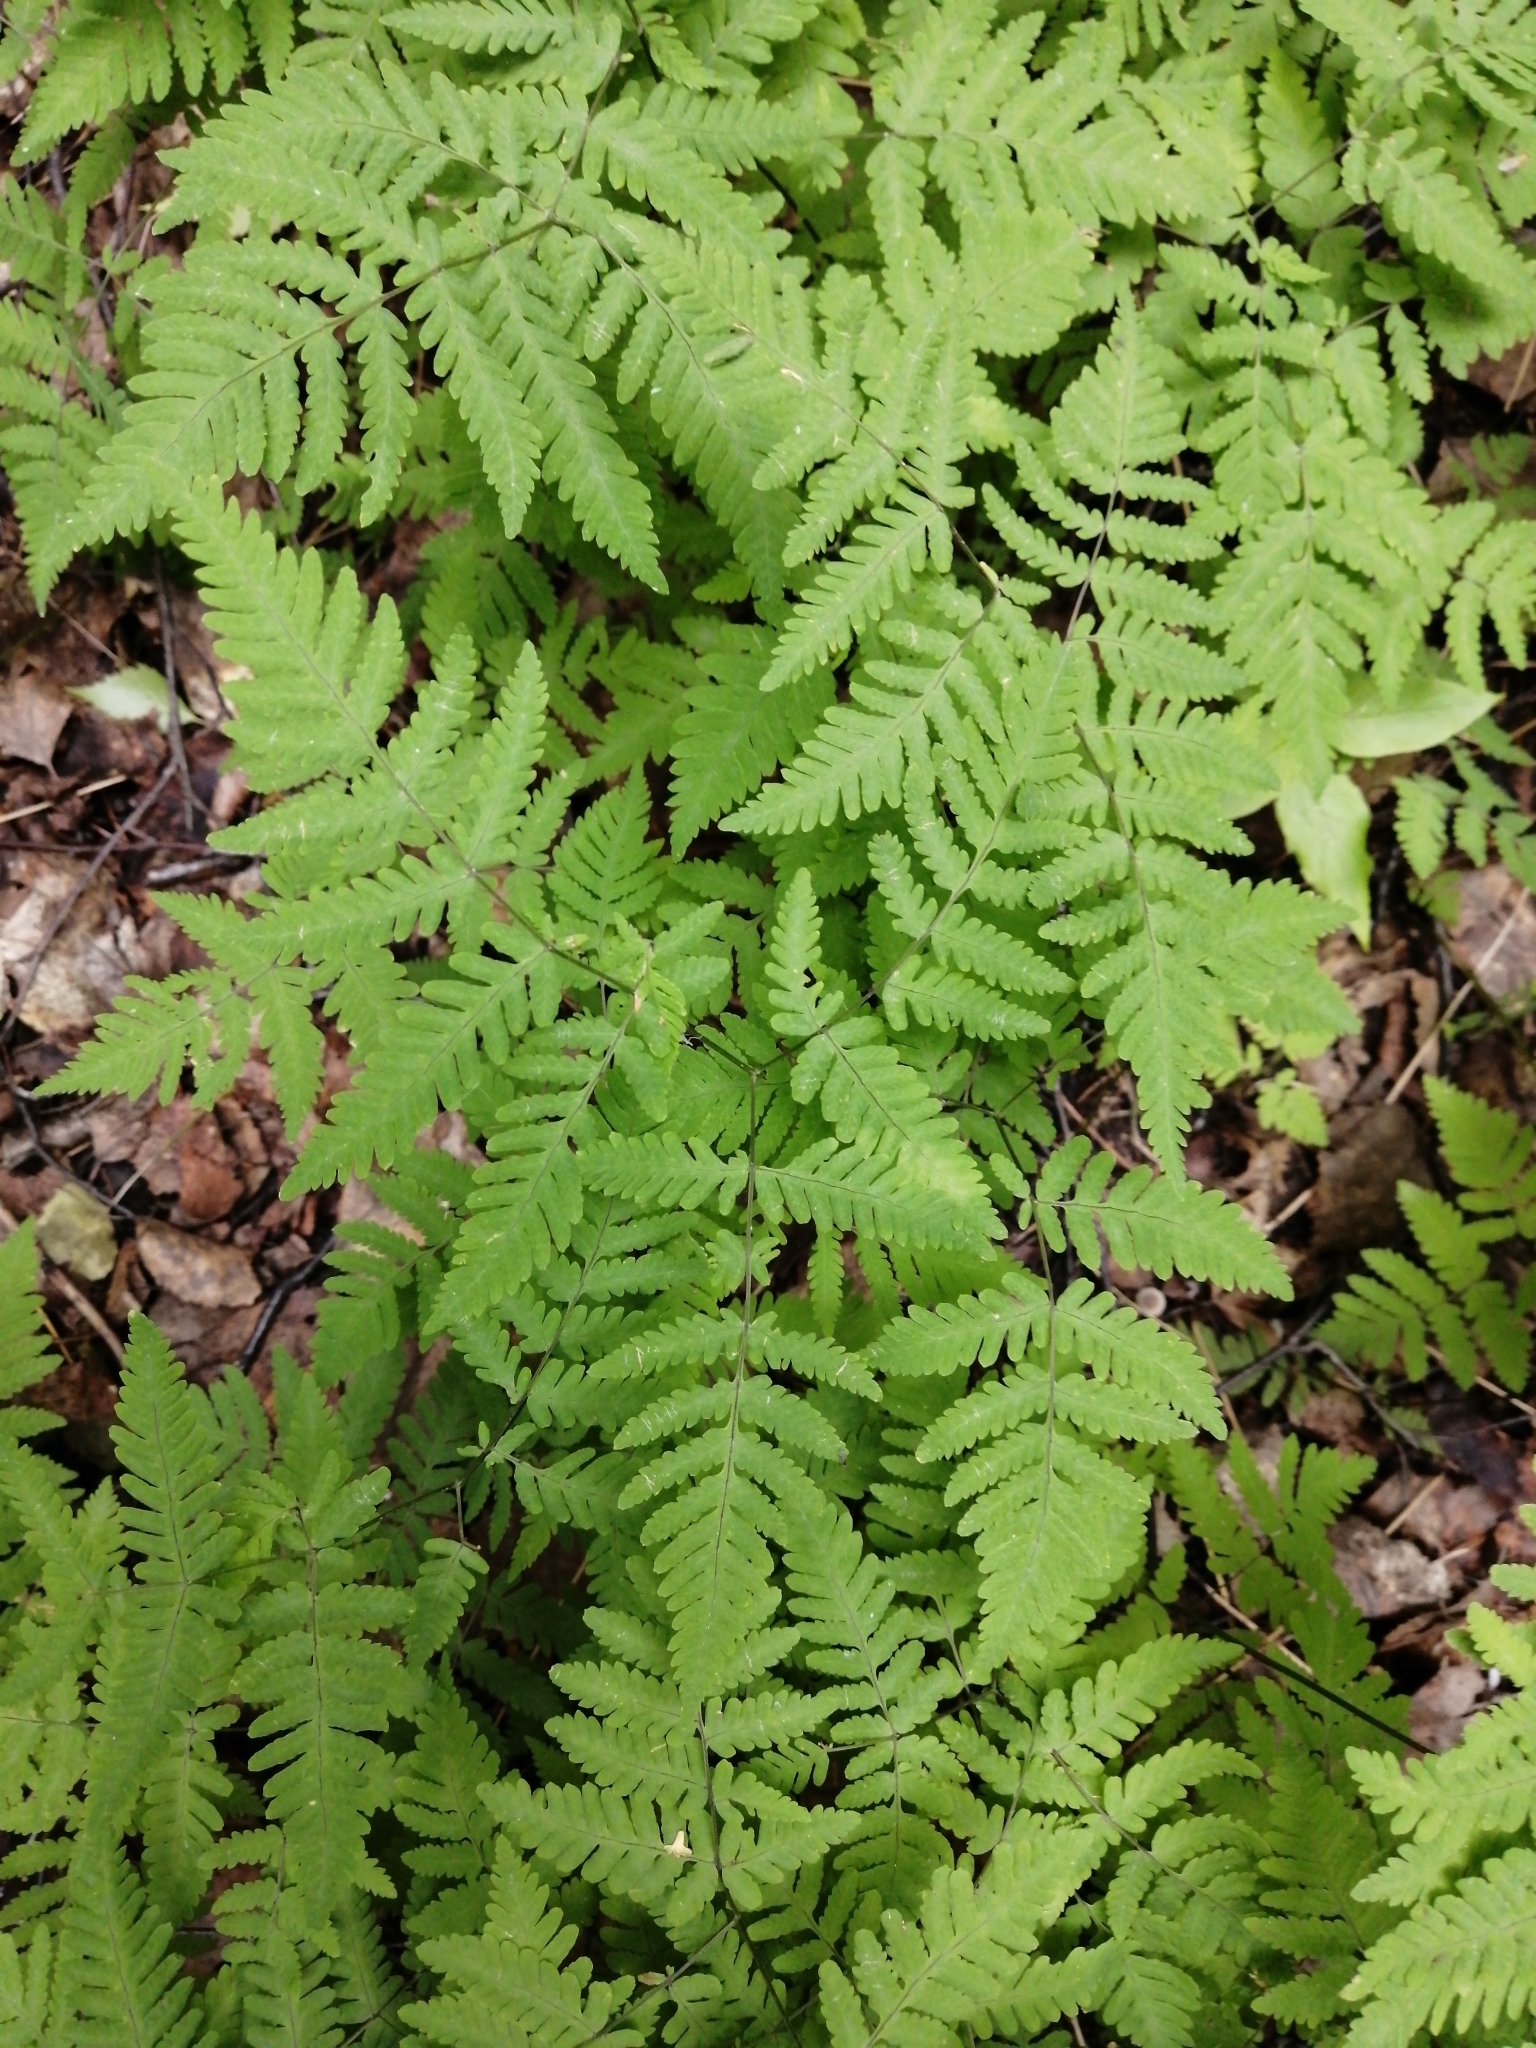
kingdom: Plantae
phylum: Tracheophyta
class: Polypodiopsida
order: Polypodiales
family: Cystopteridaceae
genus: Gymnocarpium
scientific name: Gymnocarpium dryopteris
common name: Oak fern
